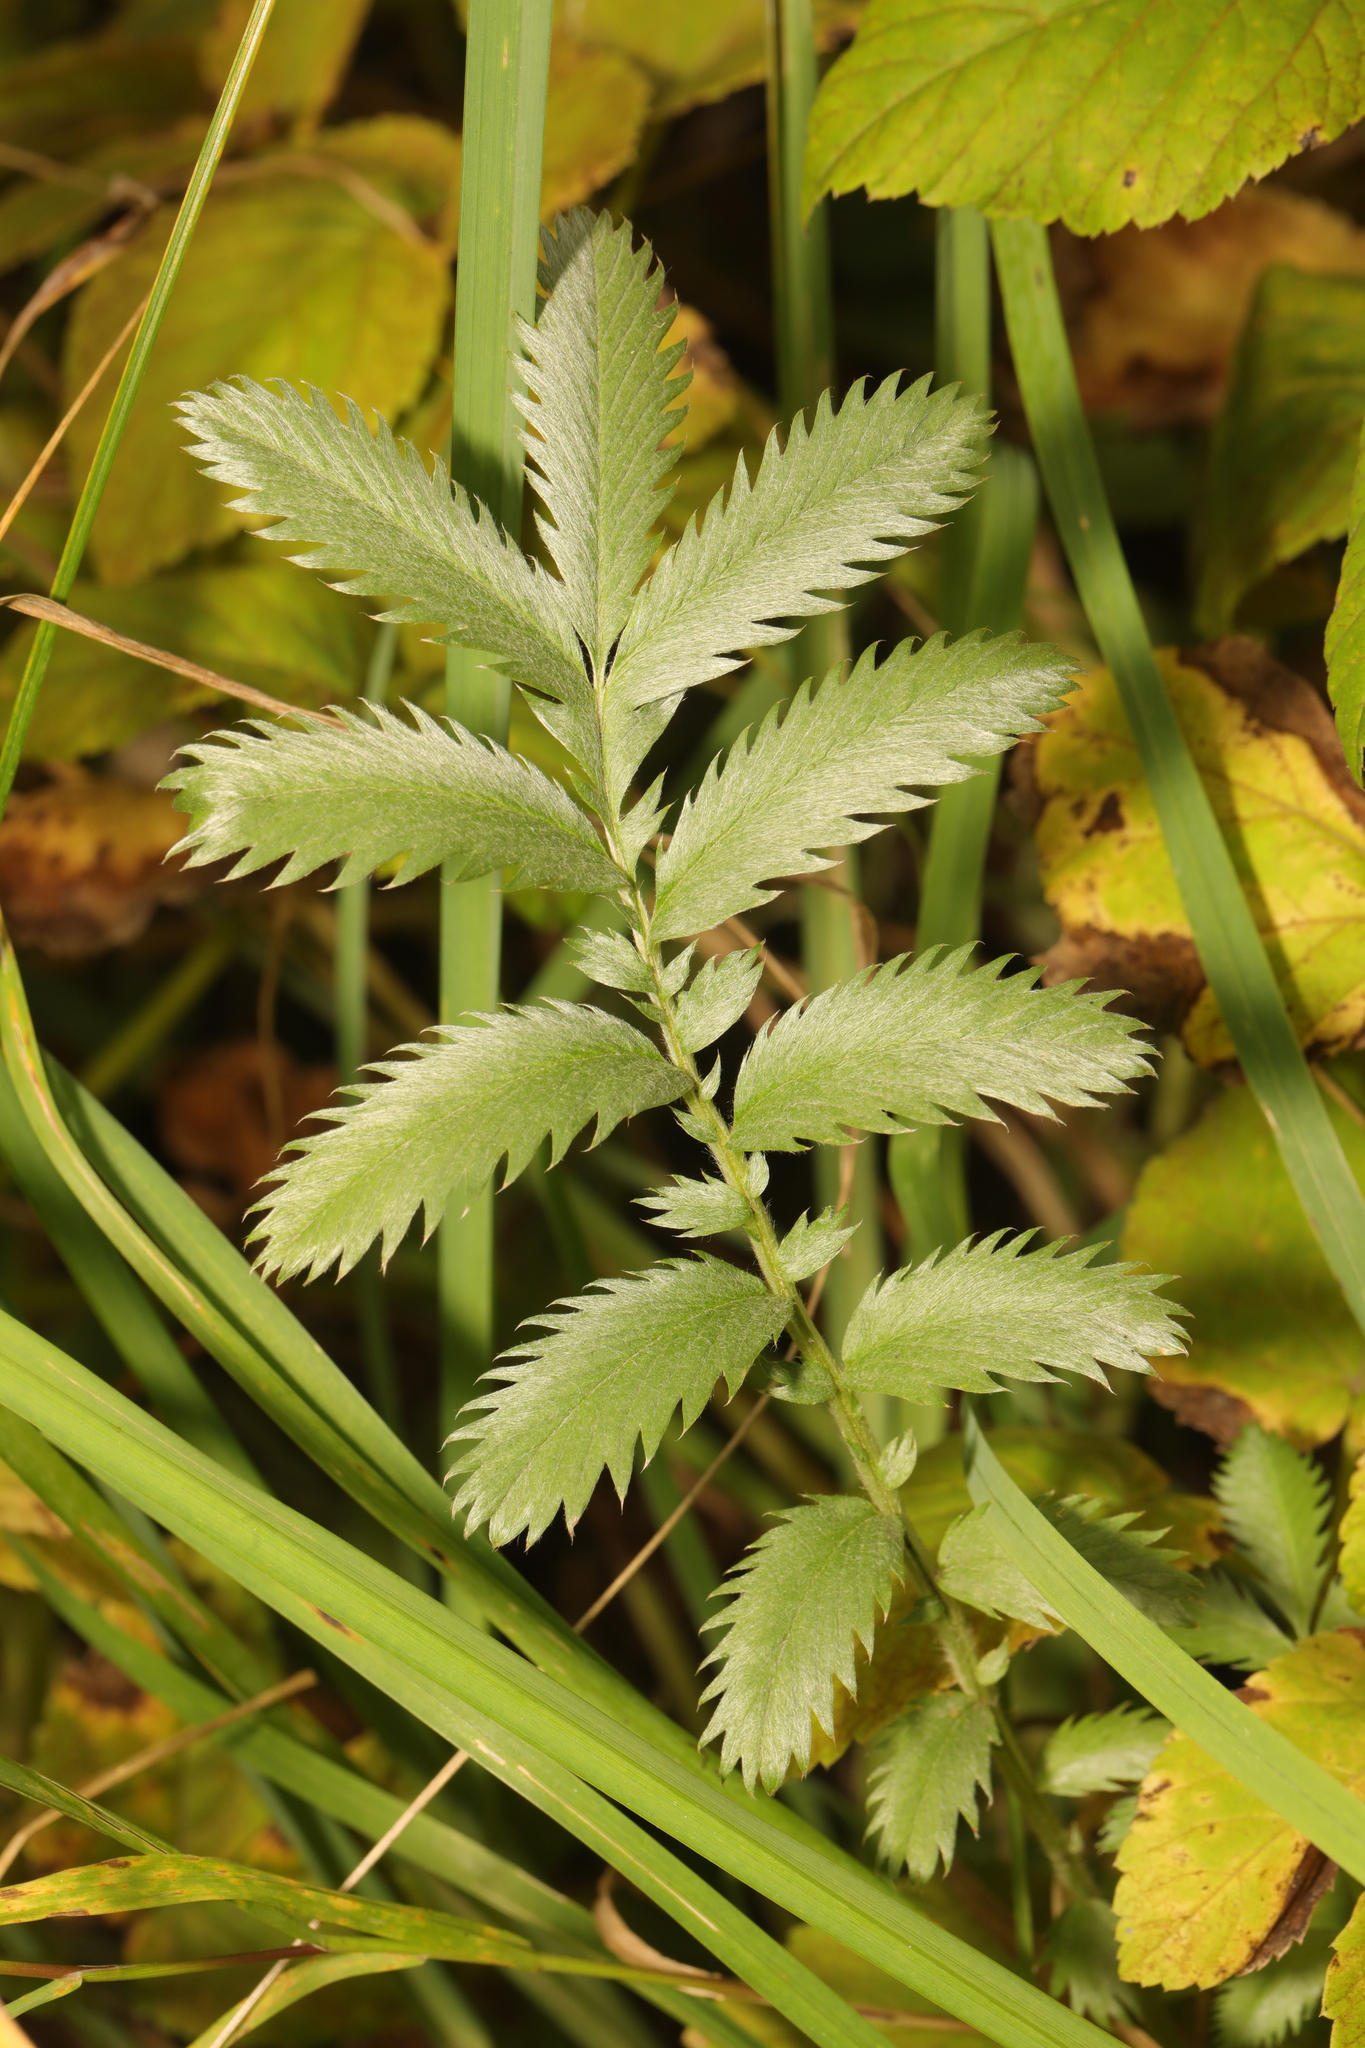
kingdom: Plantae
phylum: Tracheophyta
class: Magnoliopsida
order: Rosales
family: Rosaceae
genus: Argentina
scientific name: Argentina anserina
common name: Common silverweed
